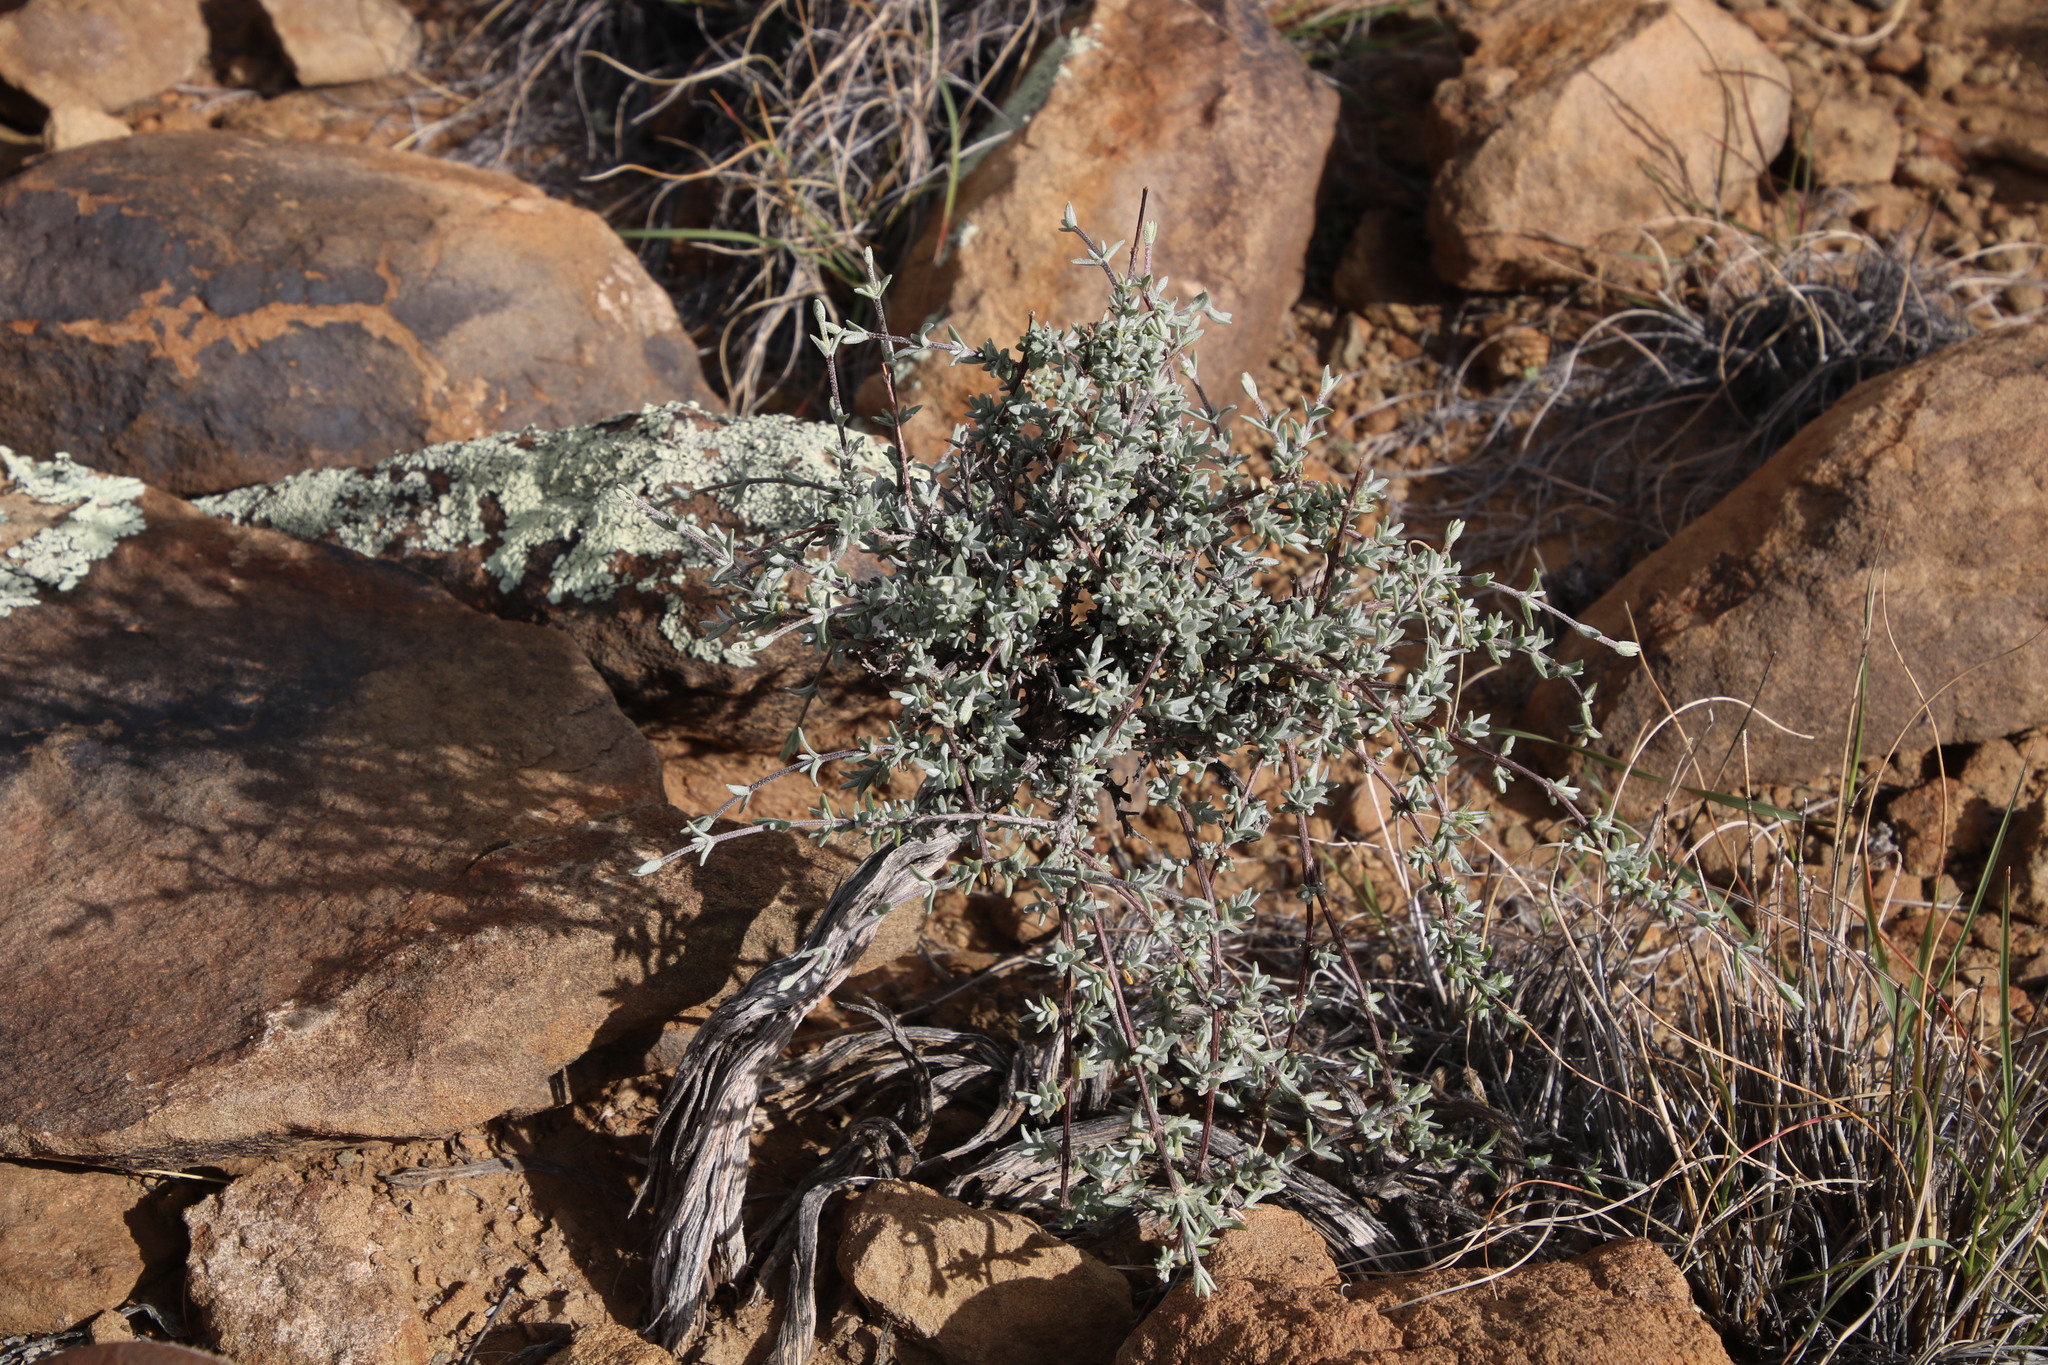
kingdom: Plantae
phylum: Tracheophyta
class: Magnoliopsida
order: Asterales
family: Asteraceae
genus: Pteronia
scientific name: Pteronia glauca
